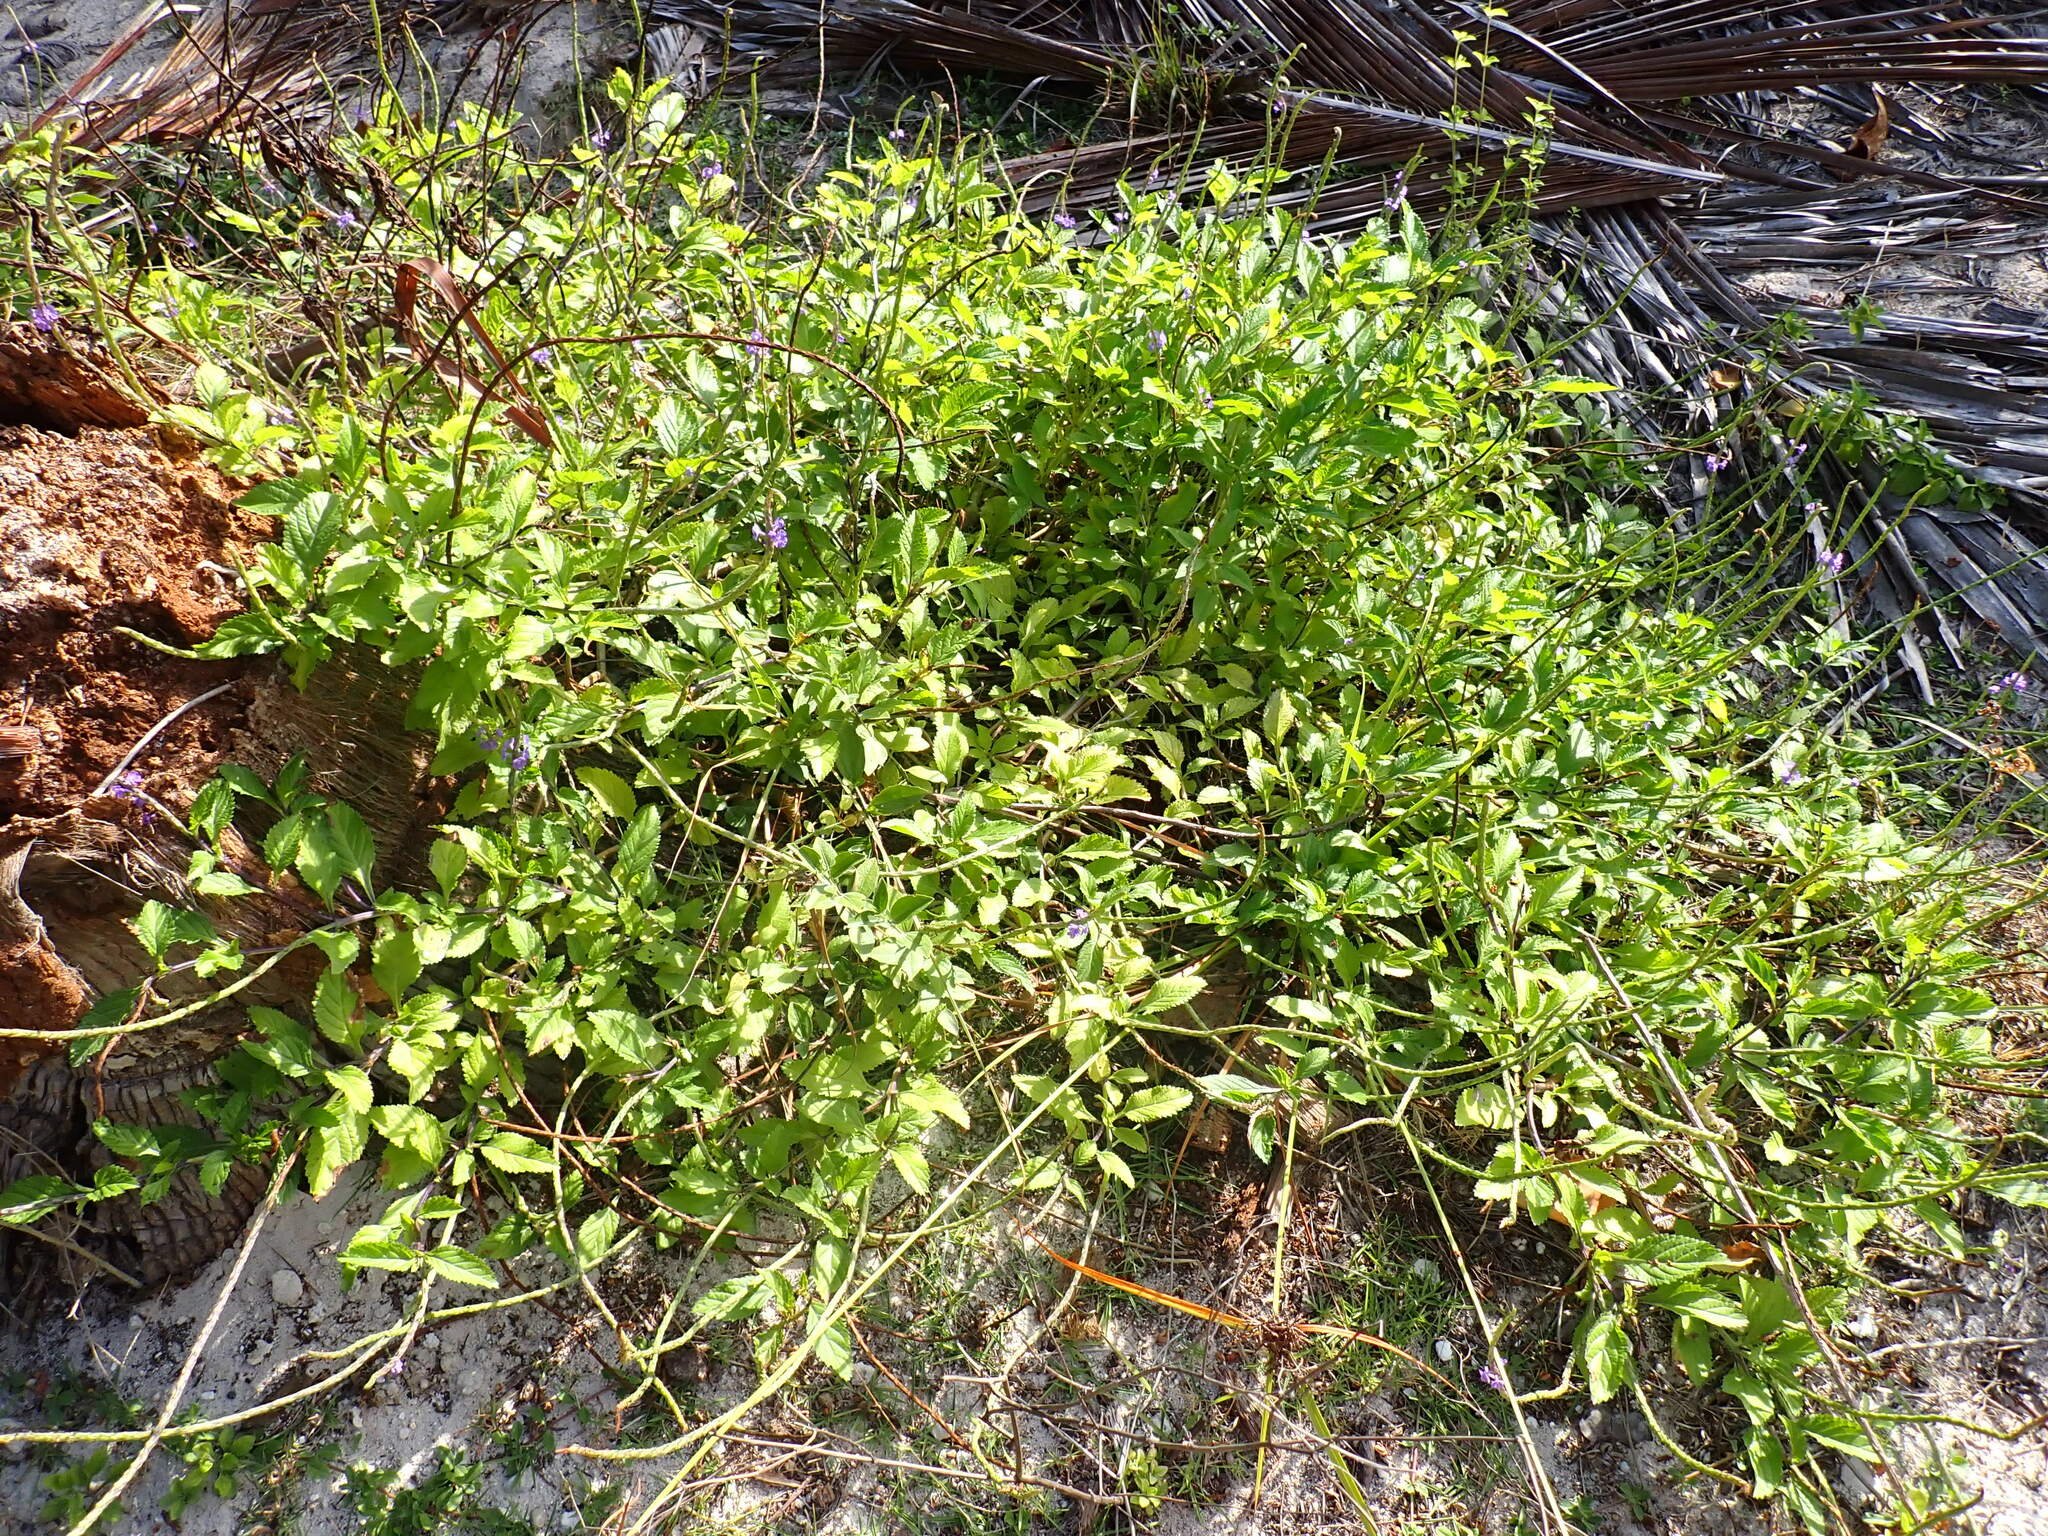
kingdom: Plantae
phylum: Tracheophyta
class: Magnoliopsida
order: Lamiales
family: Verbenaceae
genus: Stachytarpheta
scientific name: Stachytarpheta jamaicensis
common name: Light-blue snakeweed
